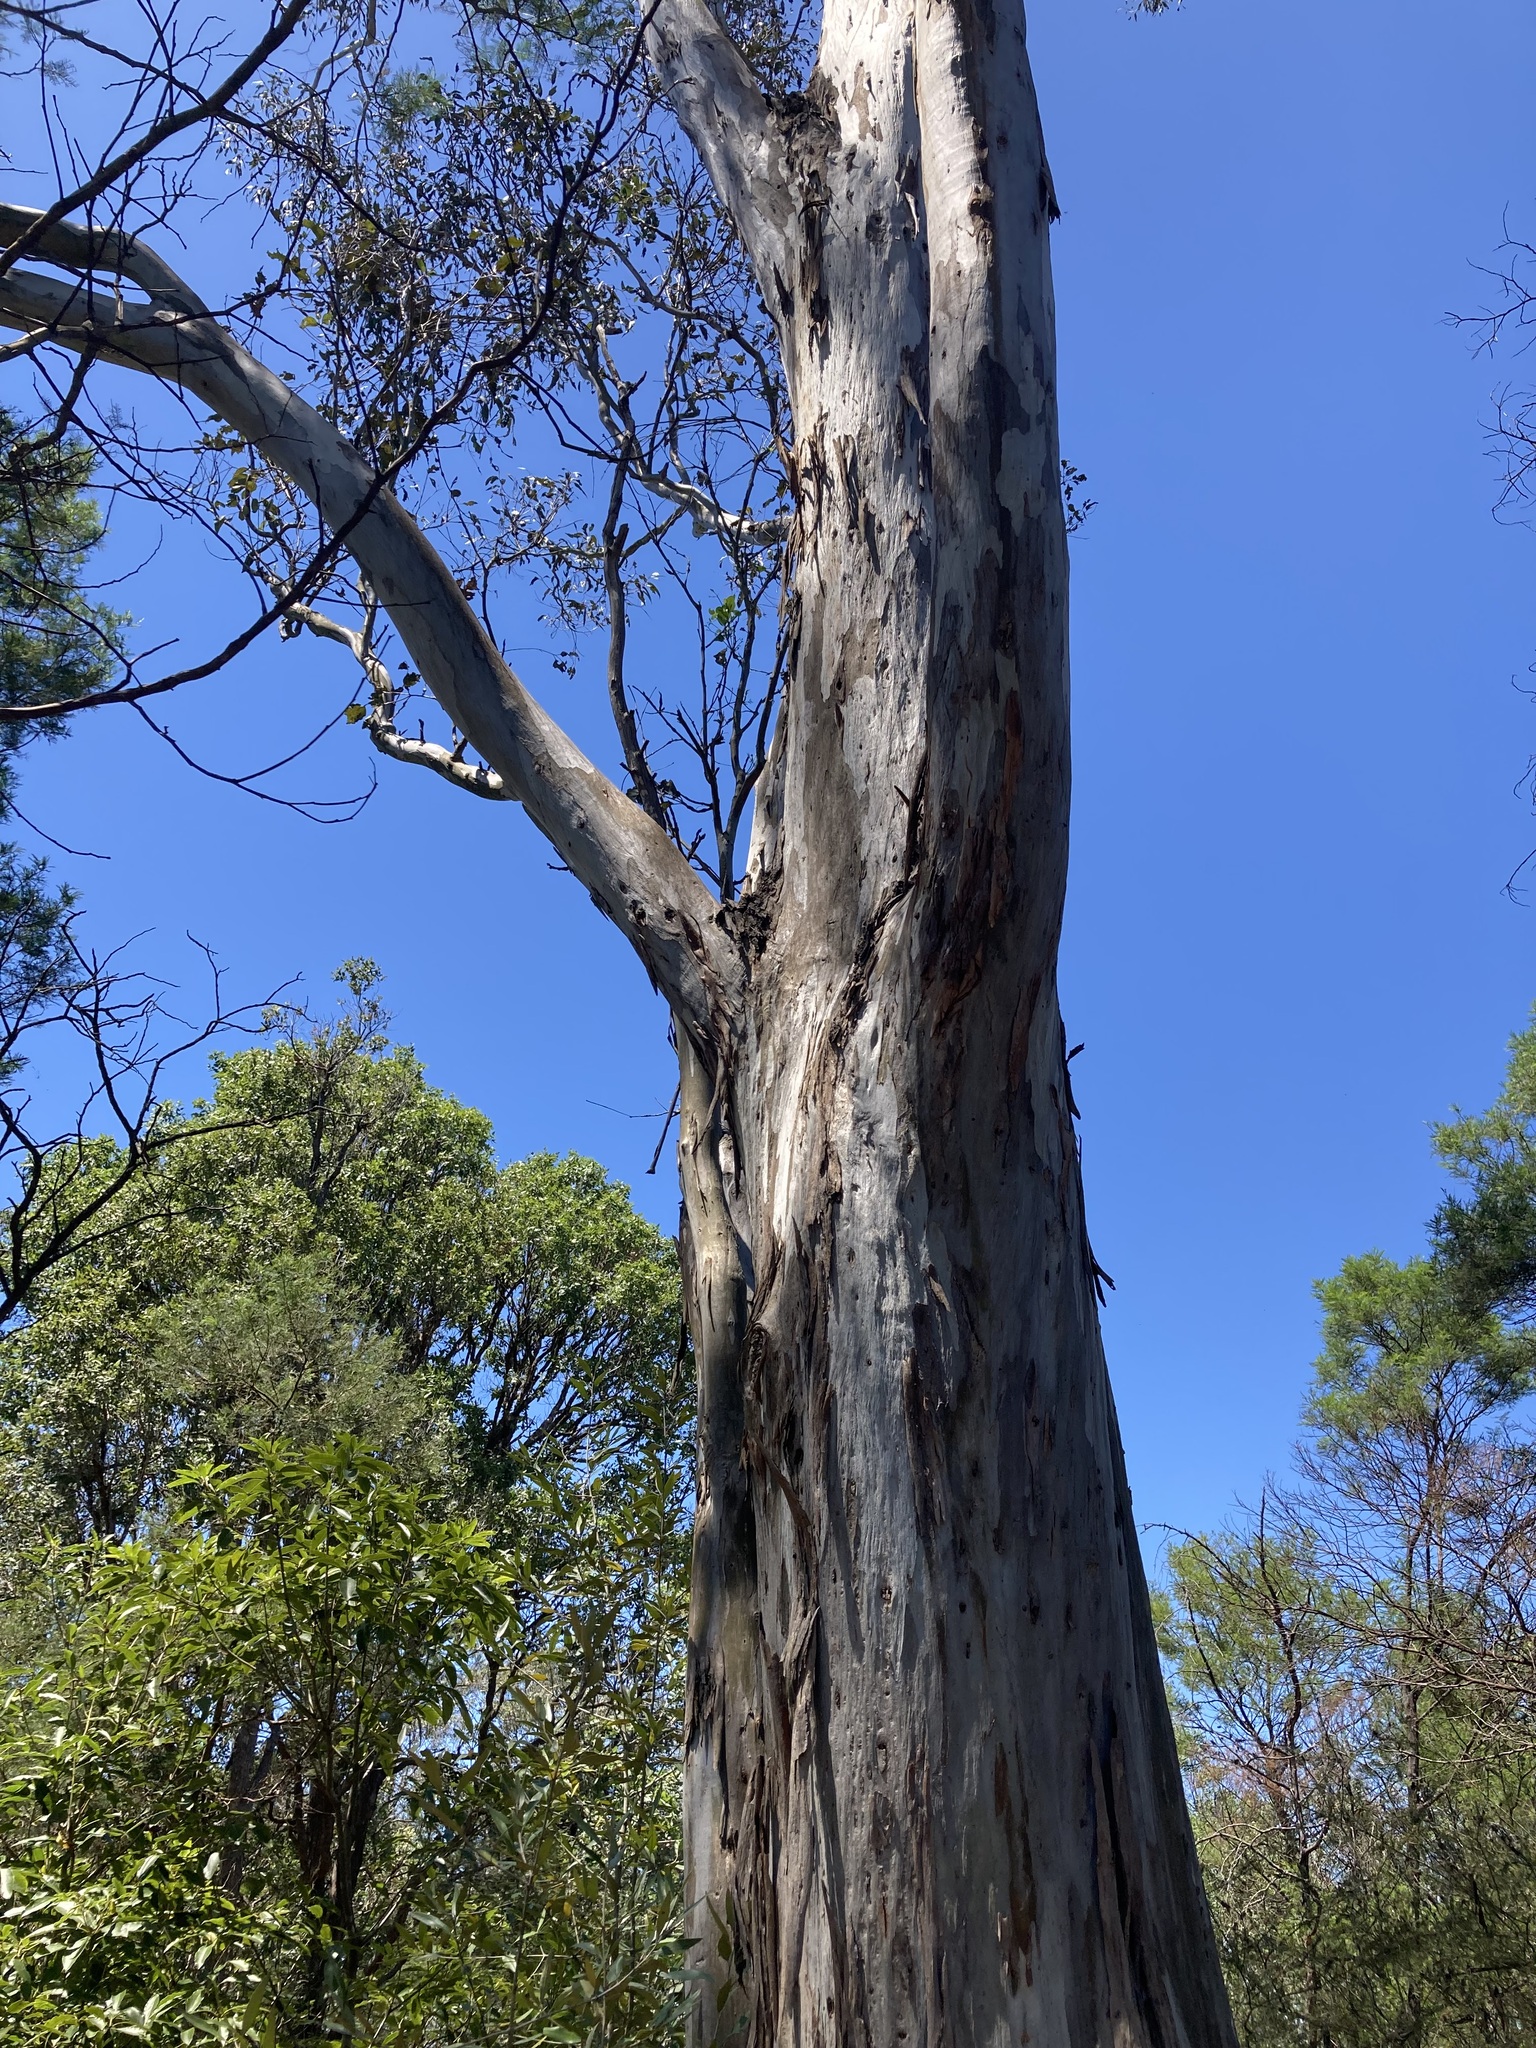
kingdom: Plantae
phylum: Tracheophyta
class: Magnoliopsida
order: Myrtales
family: Myrtaceae
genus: Eucalyptus
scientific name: Eucalyptus tereticornis
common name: Forest redgum
